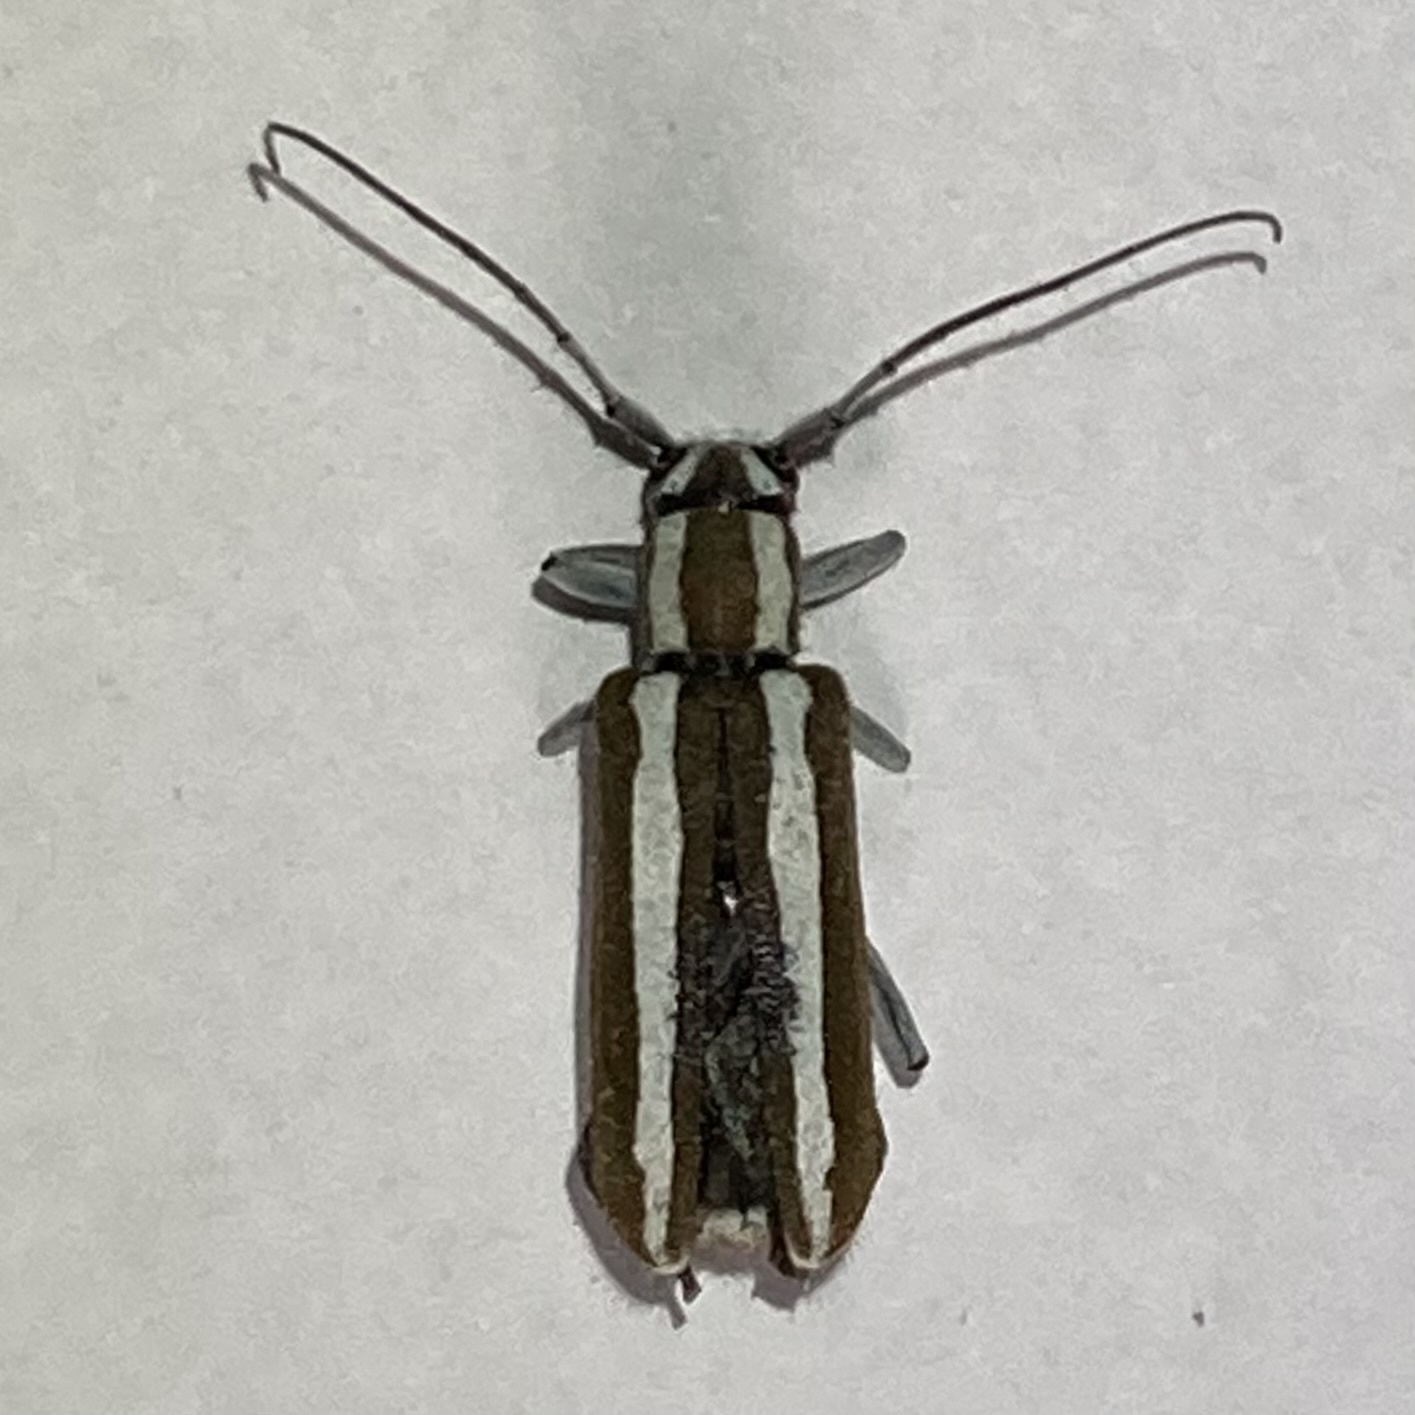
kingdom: Animalia
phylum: Arthropoda
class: Insecta
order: Coleoptera
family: Cerambycidae
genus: Saperda
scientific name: Saperda candida
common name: Round-headed borer
